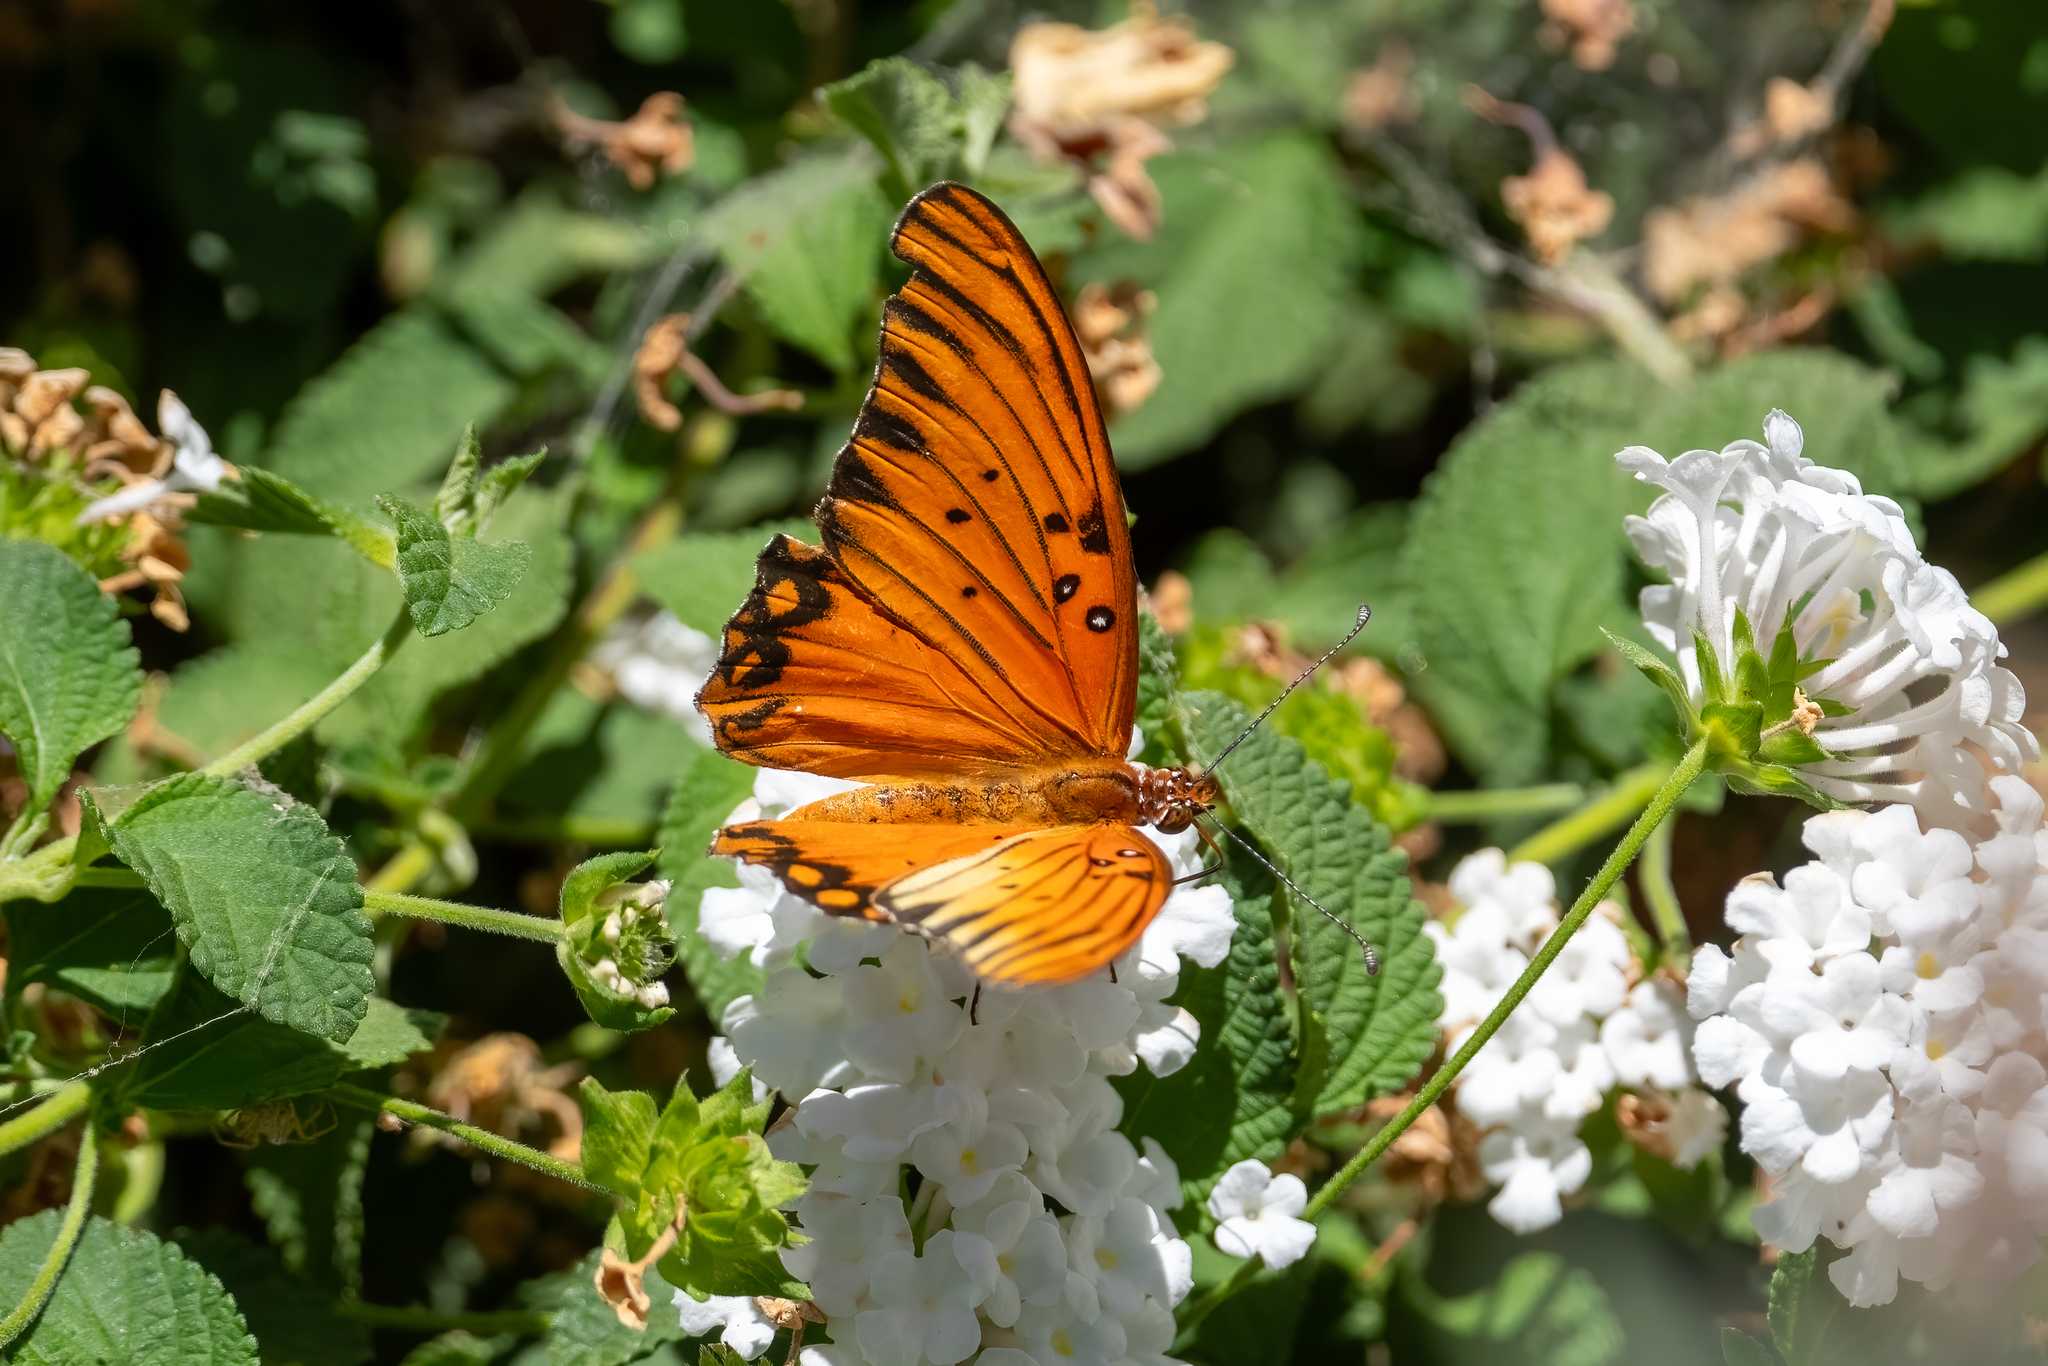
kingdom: Animalia
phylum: Arthropoda
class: Insecta
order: Lepidoptera
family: Nymphalidae
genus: Dione
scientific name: Dione vanillae
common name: Gulf fritillary
